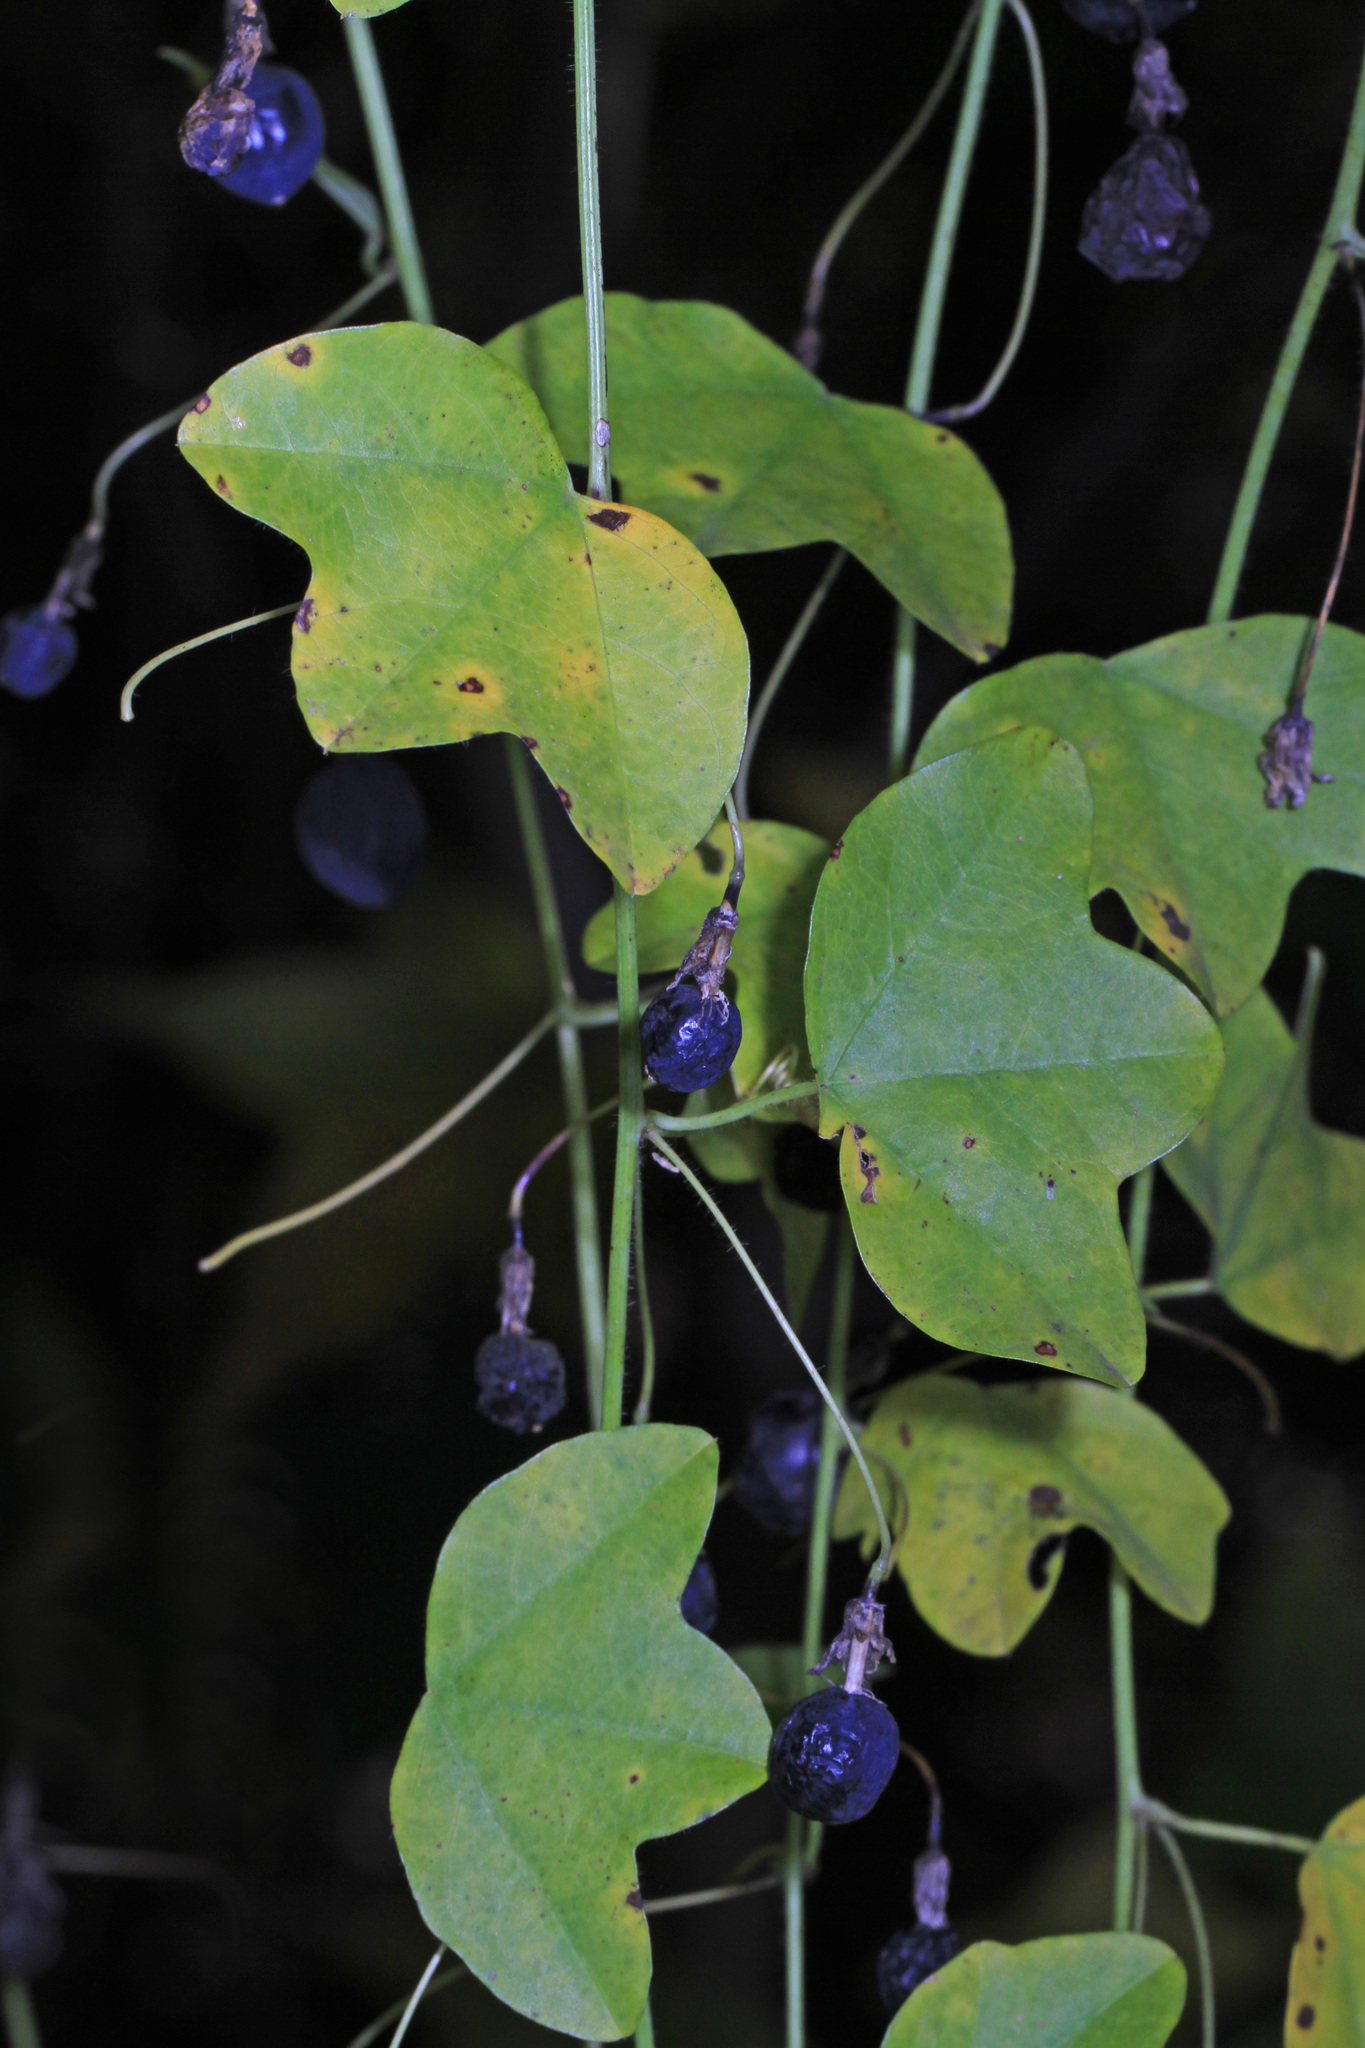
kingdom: Plantae
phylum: Tracheophyta
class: Magnoliopsida
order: Malpighiales
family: Passifloraceae
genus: Passiflora
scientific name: Passiflora lutea
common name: Yellow passionflower
